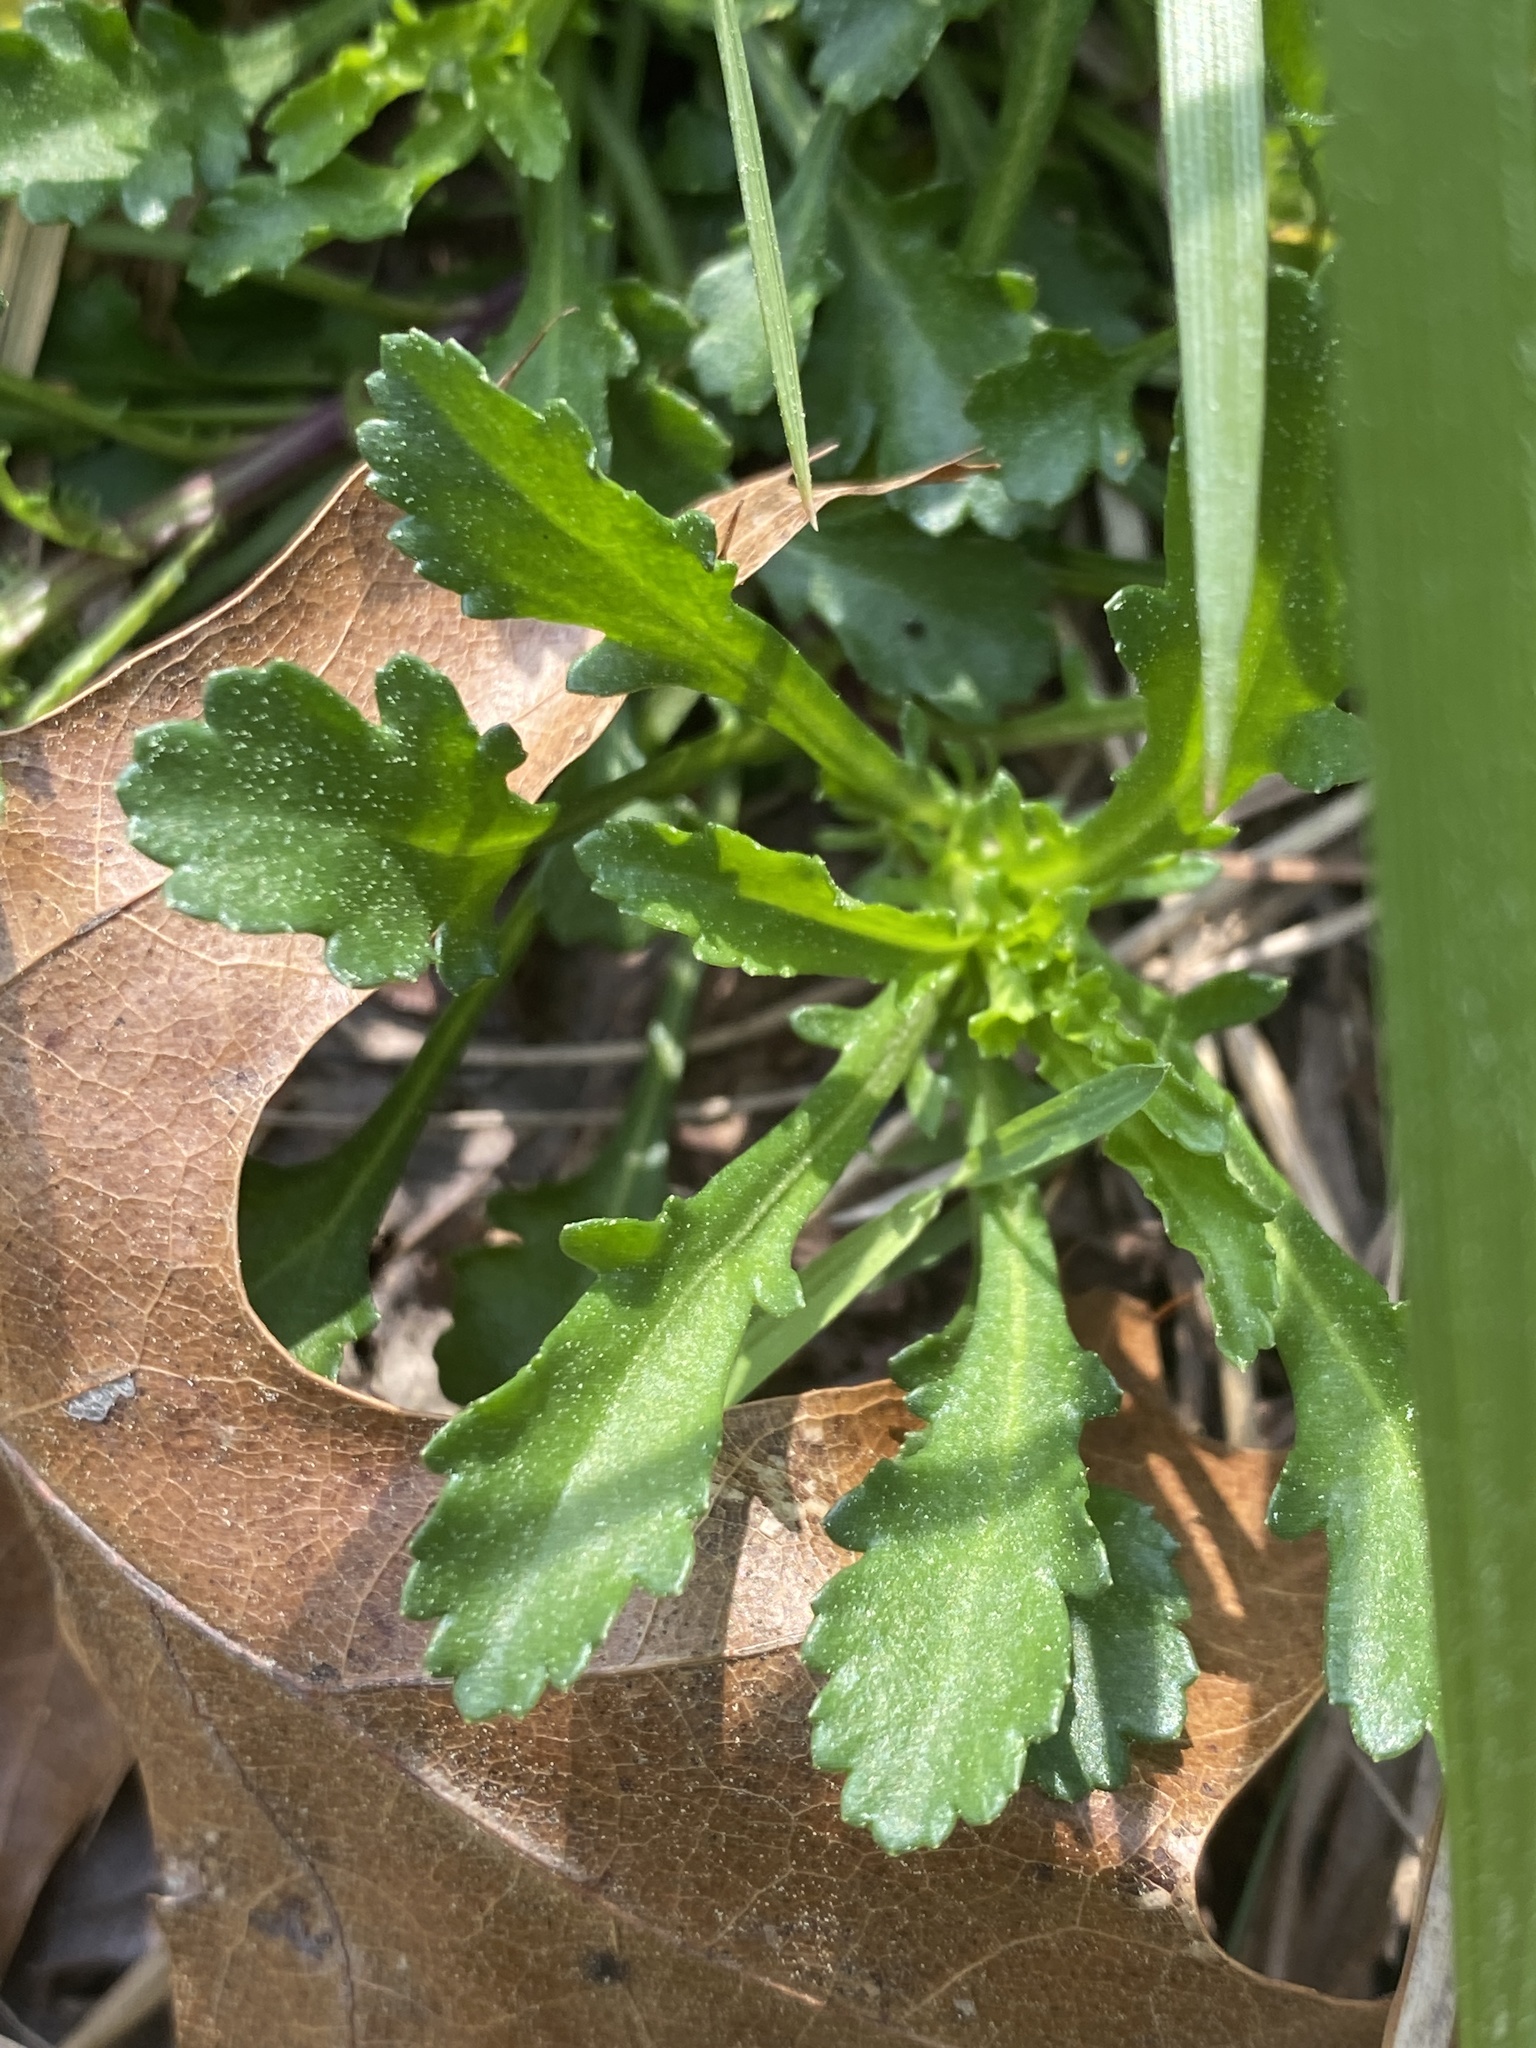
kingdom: Plantae
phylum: Tracheophyta
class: Magnoliopsida
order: Asterales
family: Asteraceae
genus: Leucanthemum
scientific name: Leucanthemum vulgare
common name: Oxeye daisy
